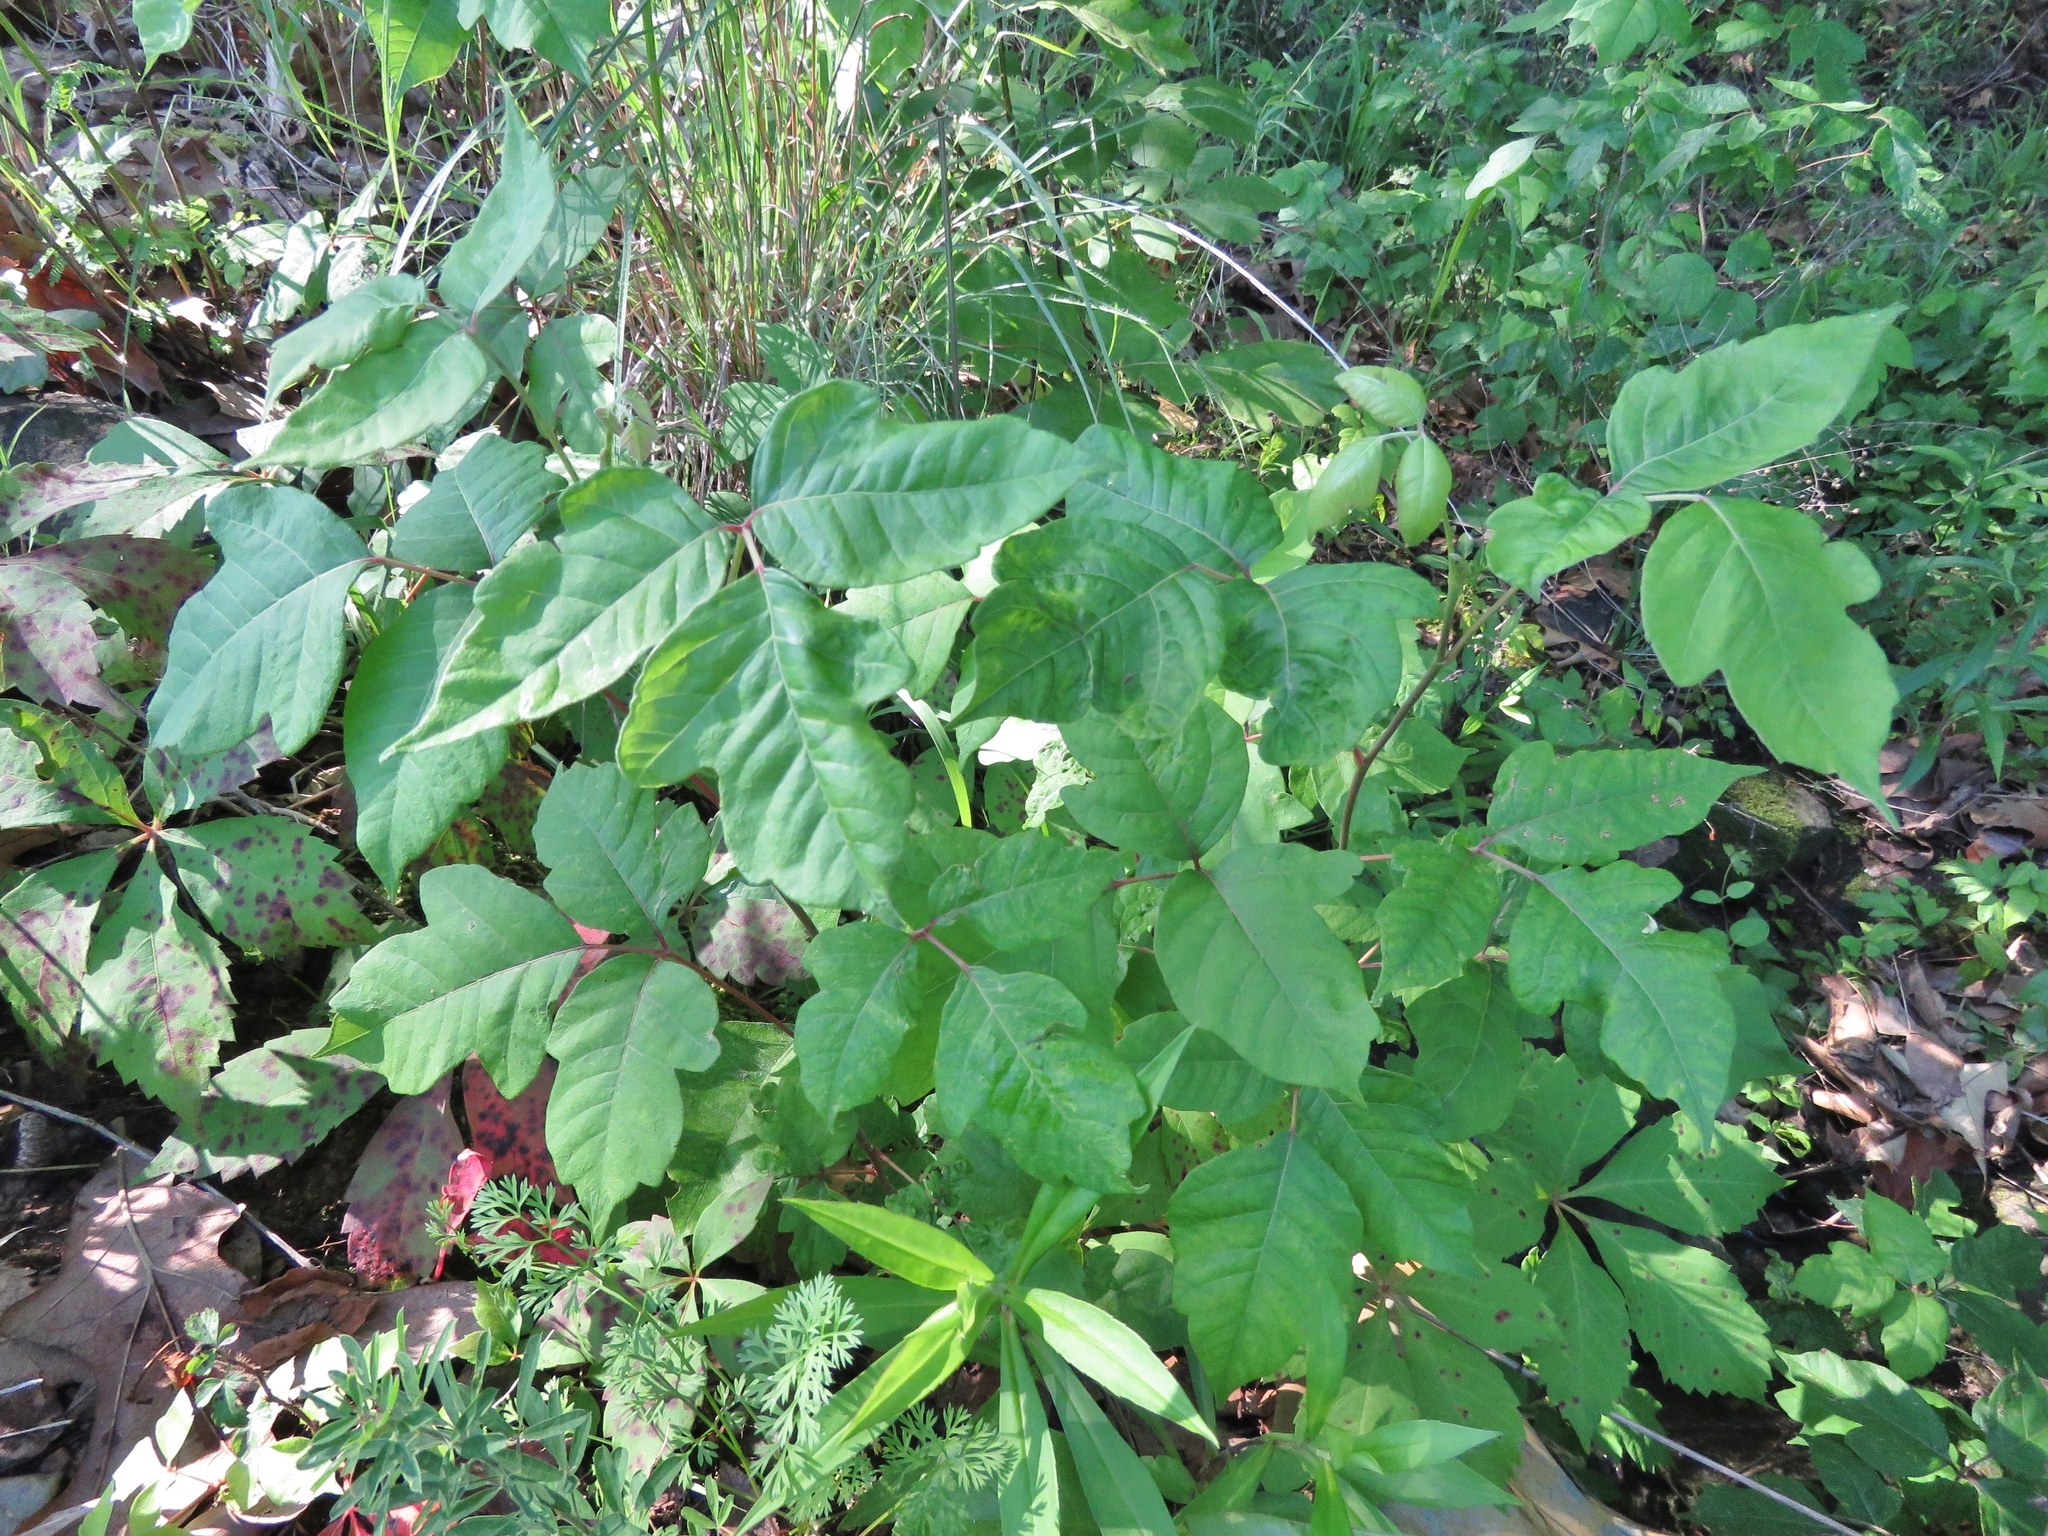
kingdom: Plantae
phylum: Tracheophyta
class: Magnoliopsida
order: Sapindales
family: Anacardiaceae
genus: Toxicodendron
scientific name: Toxicodendron radicans
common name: Poison ivy
